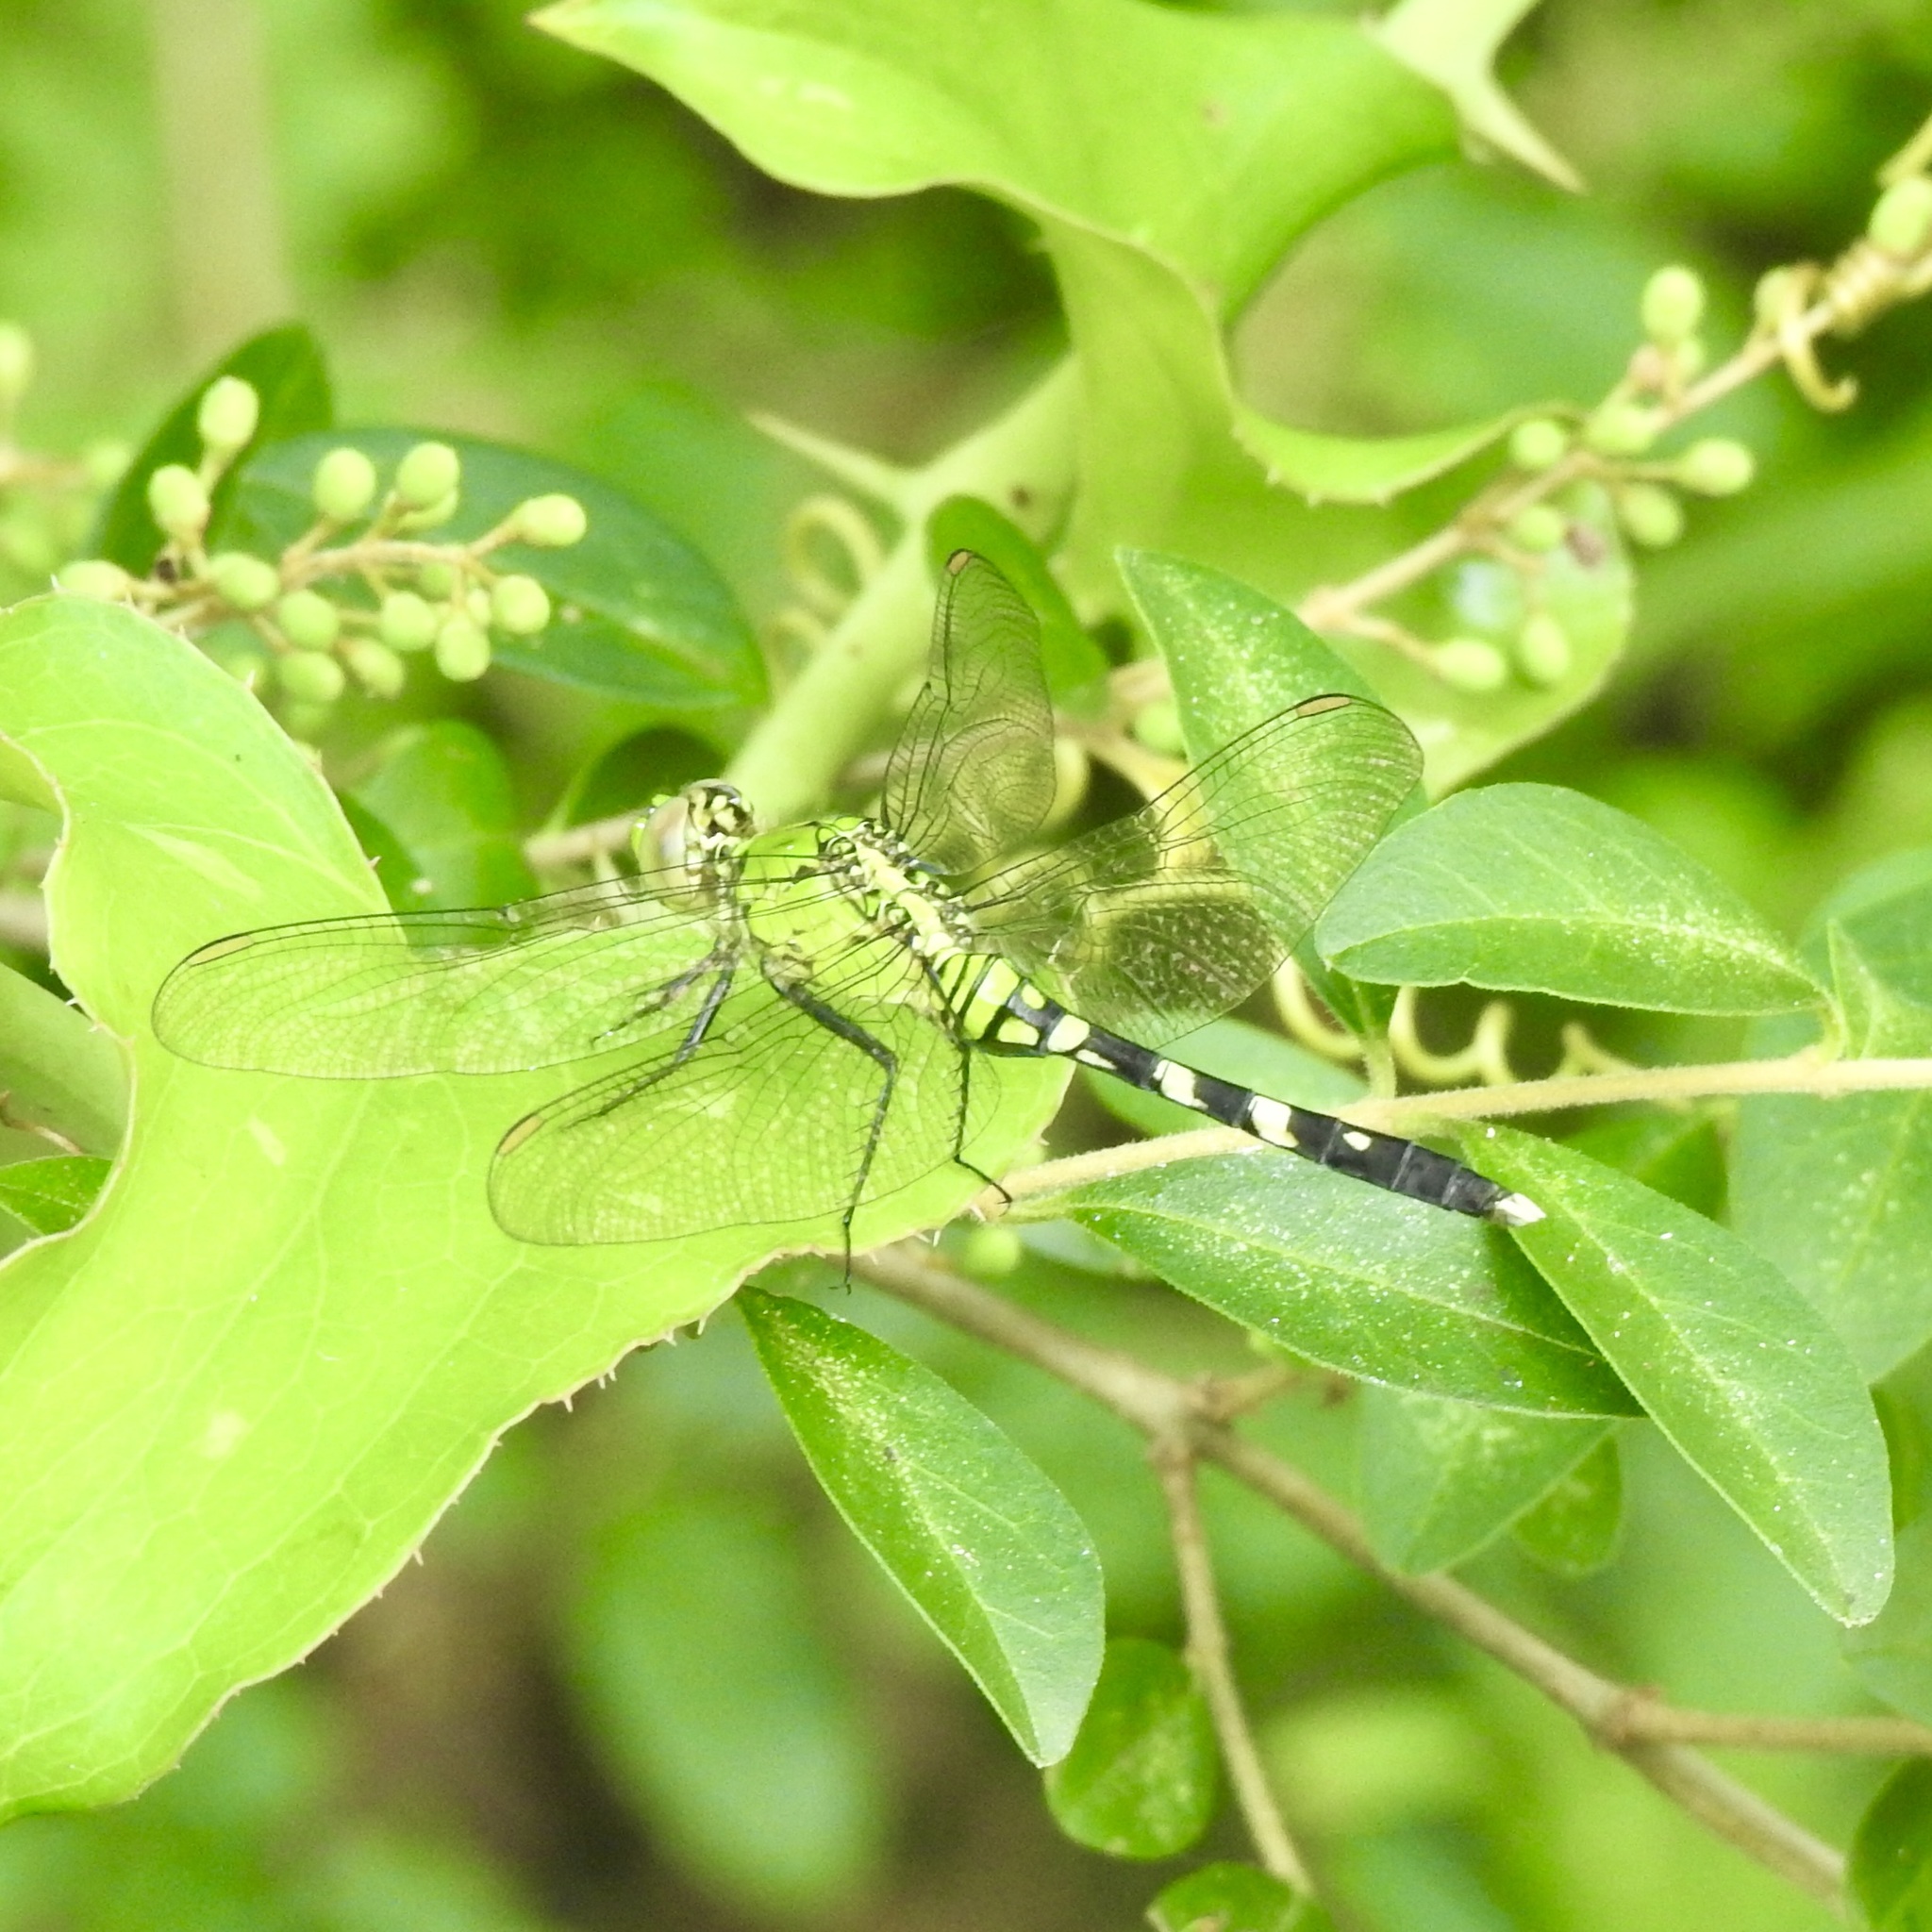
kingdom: Animalia
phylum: Arthropoda
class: Insecta
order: Odonata
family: Libellulidae
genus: Erythemis
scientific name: Erythemis simplicicollis
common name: Eastern pondhawk
